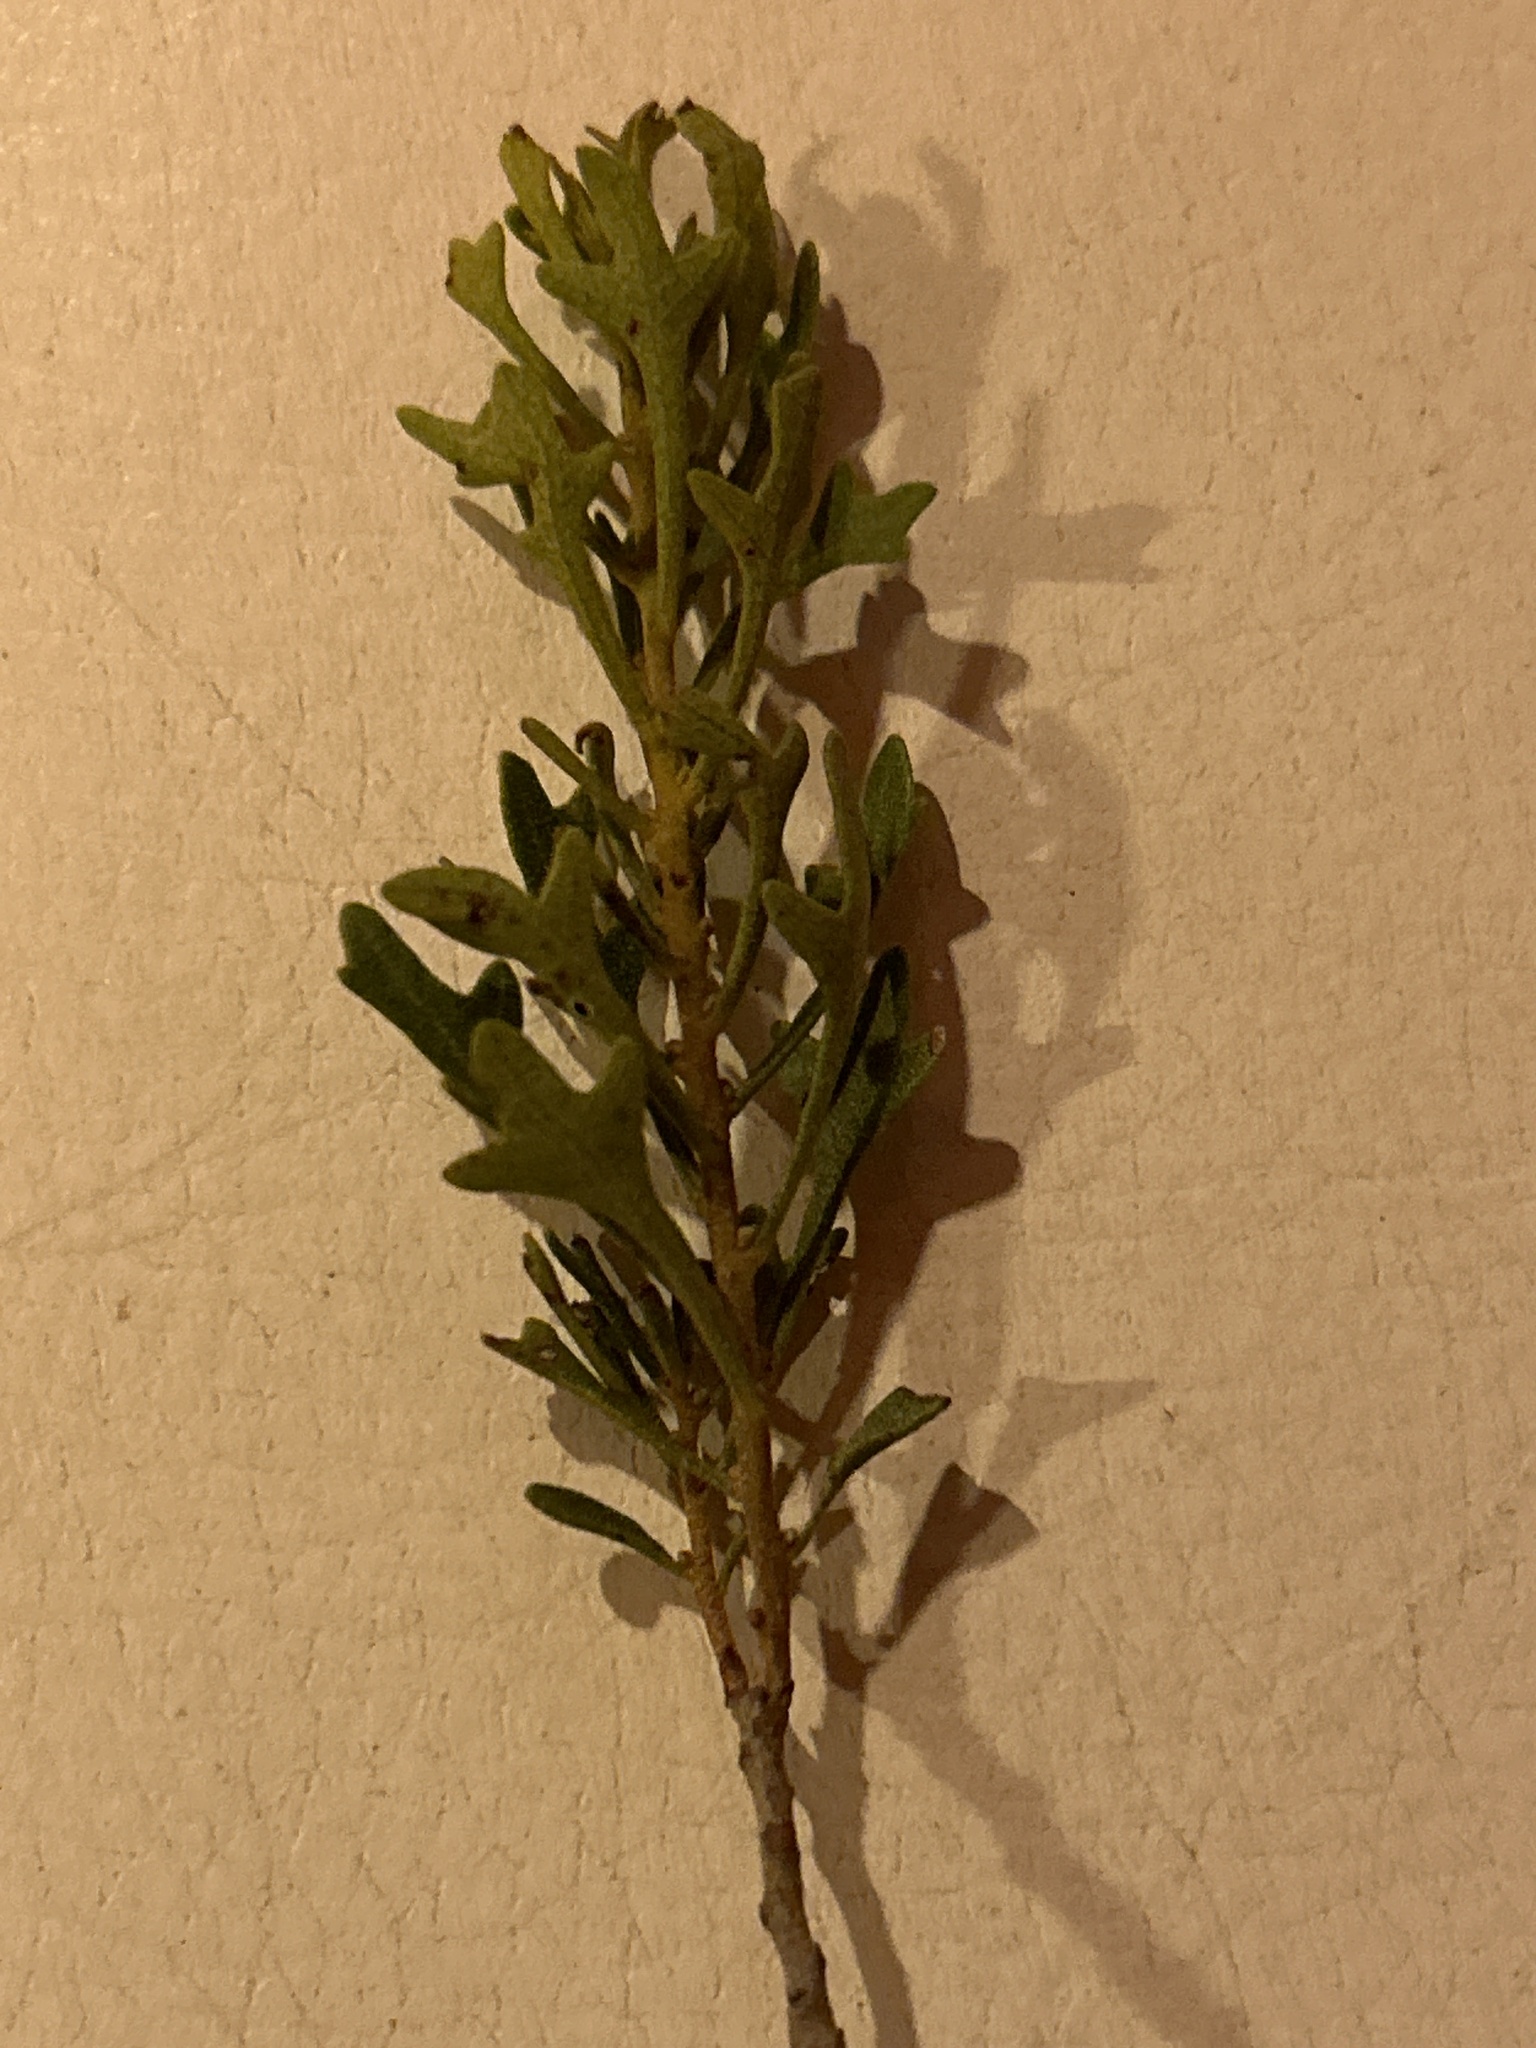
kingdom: Plantae
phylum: Tracheophyta
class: Magnoliopsida
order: Fagales
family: Myricaceae
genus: Morella
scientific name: Morella quercifolia
